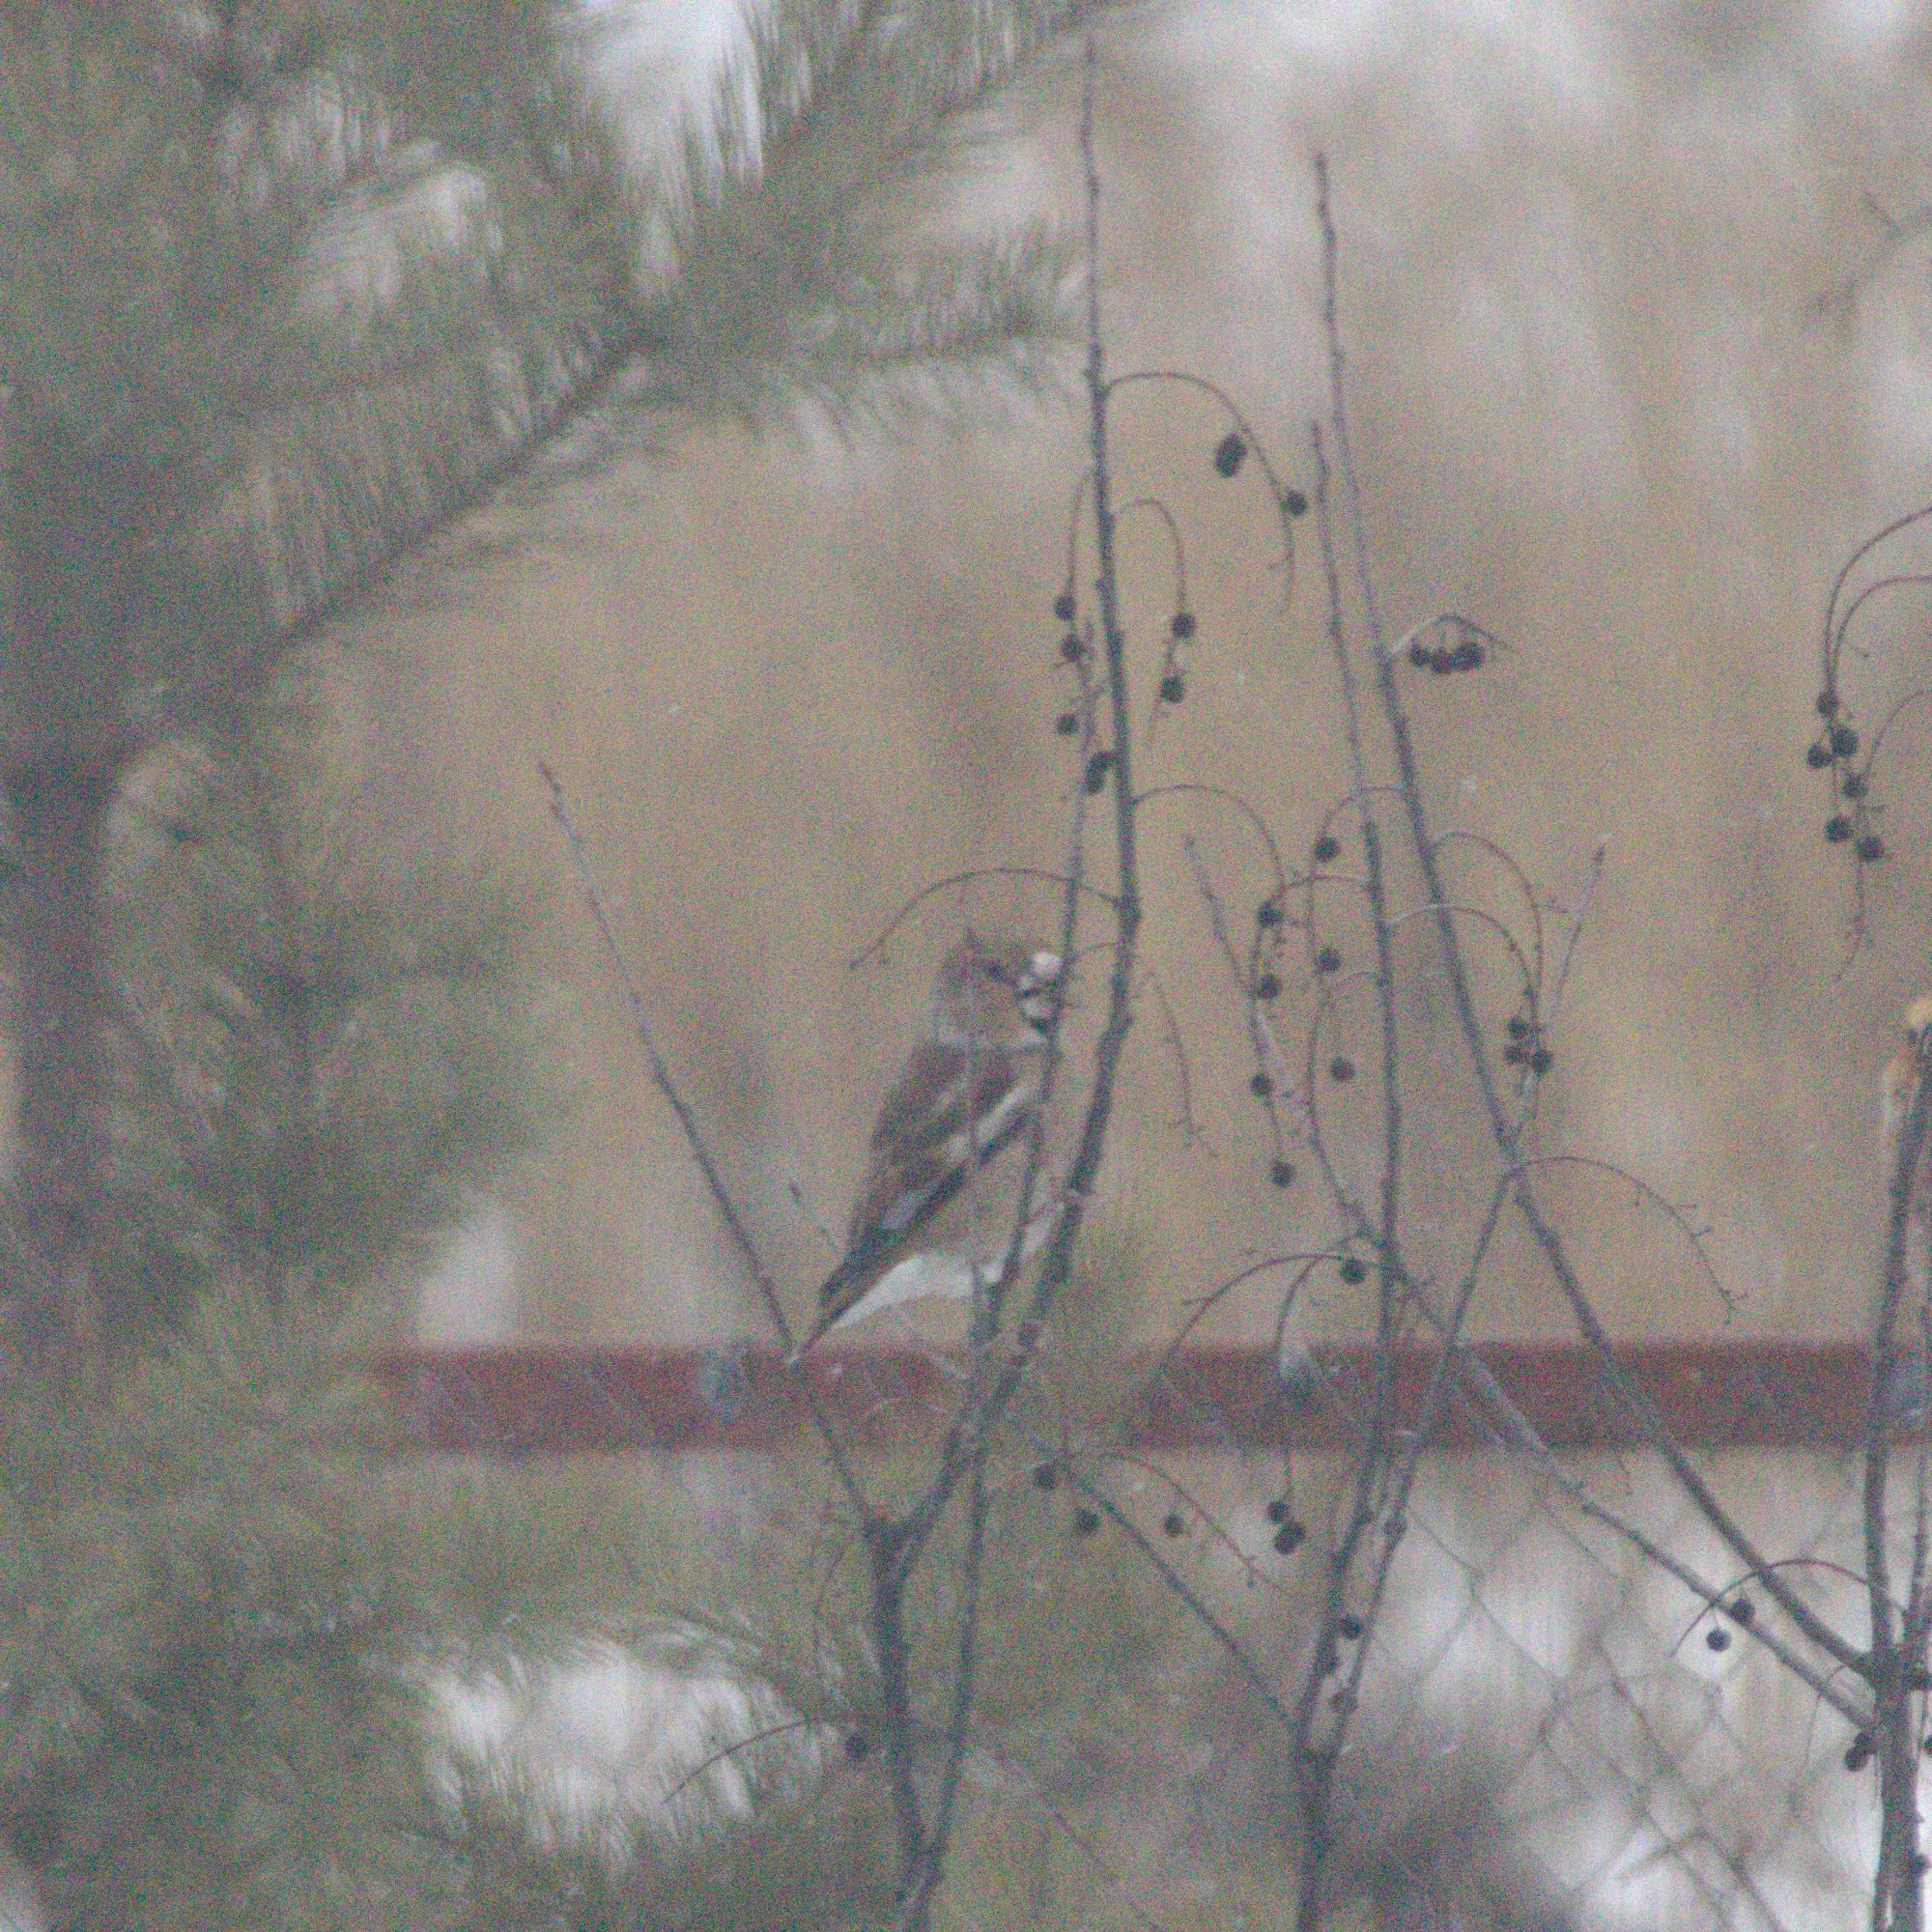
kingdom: Animalia
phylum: Chordata
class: Aves
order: Passeriformes
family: Fringillidae
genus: Coccothraustes
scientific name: Coccothraustes coccothraustes
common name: Hawfinch
